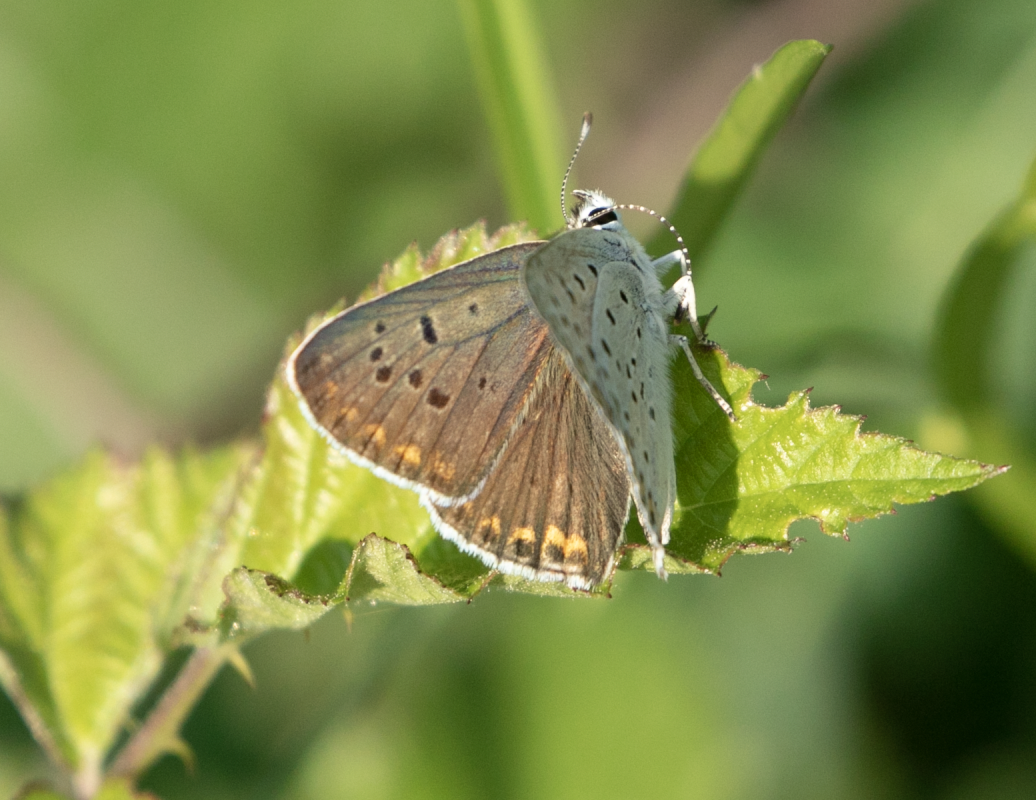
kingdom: Animalia
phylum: Arthropoda
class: Insecta
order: Lepidoptera
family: Lycaenidae
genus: Loweia
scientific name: Loweia tityrus
